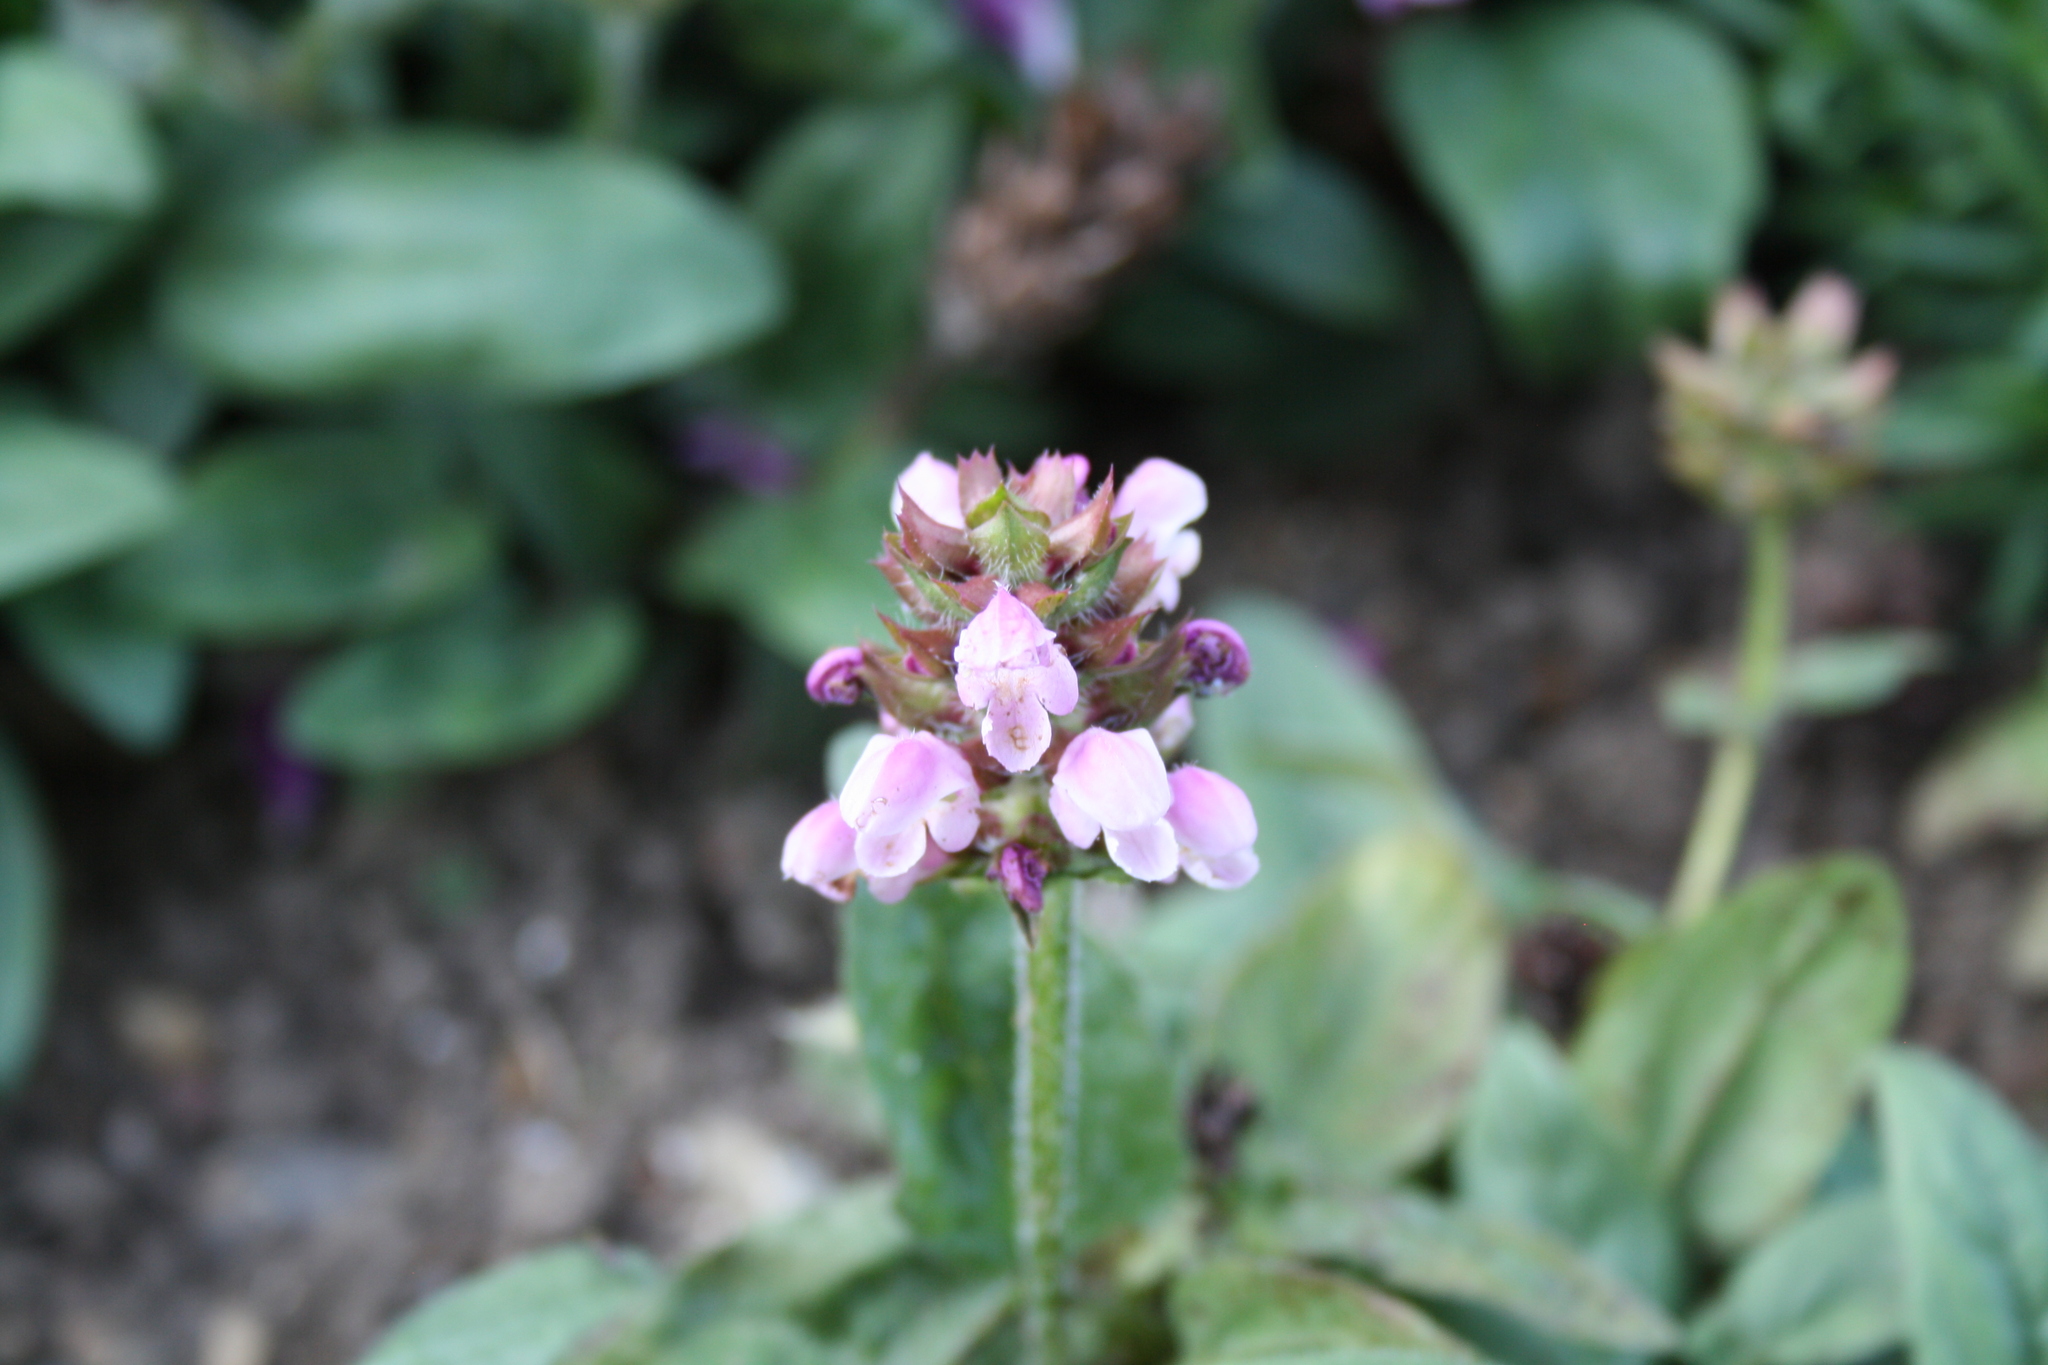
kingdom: Plantae
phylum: Tracheophyta
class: Magnoliopsida
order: Lamiales
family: Lamiaceae
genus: Prunella
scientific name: Prunella vulgaris
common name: Heal-all
